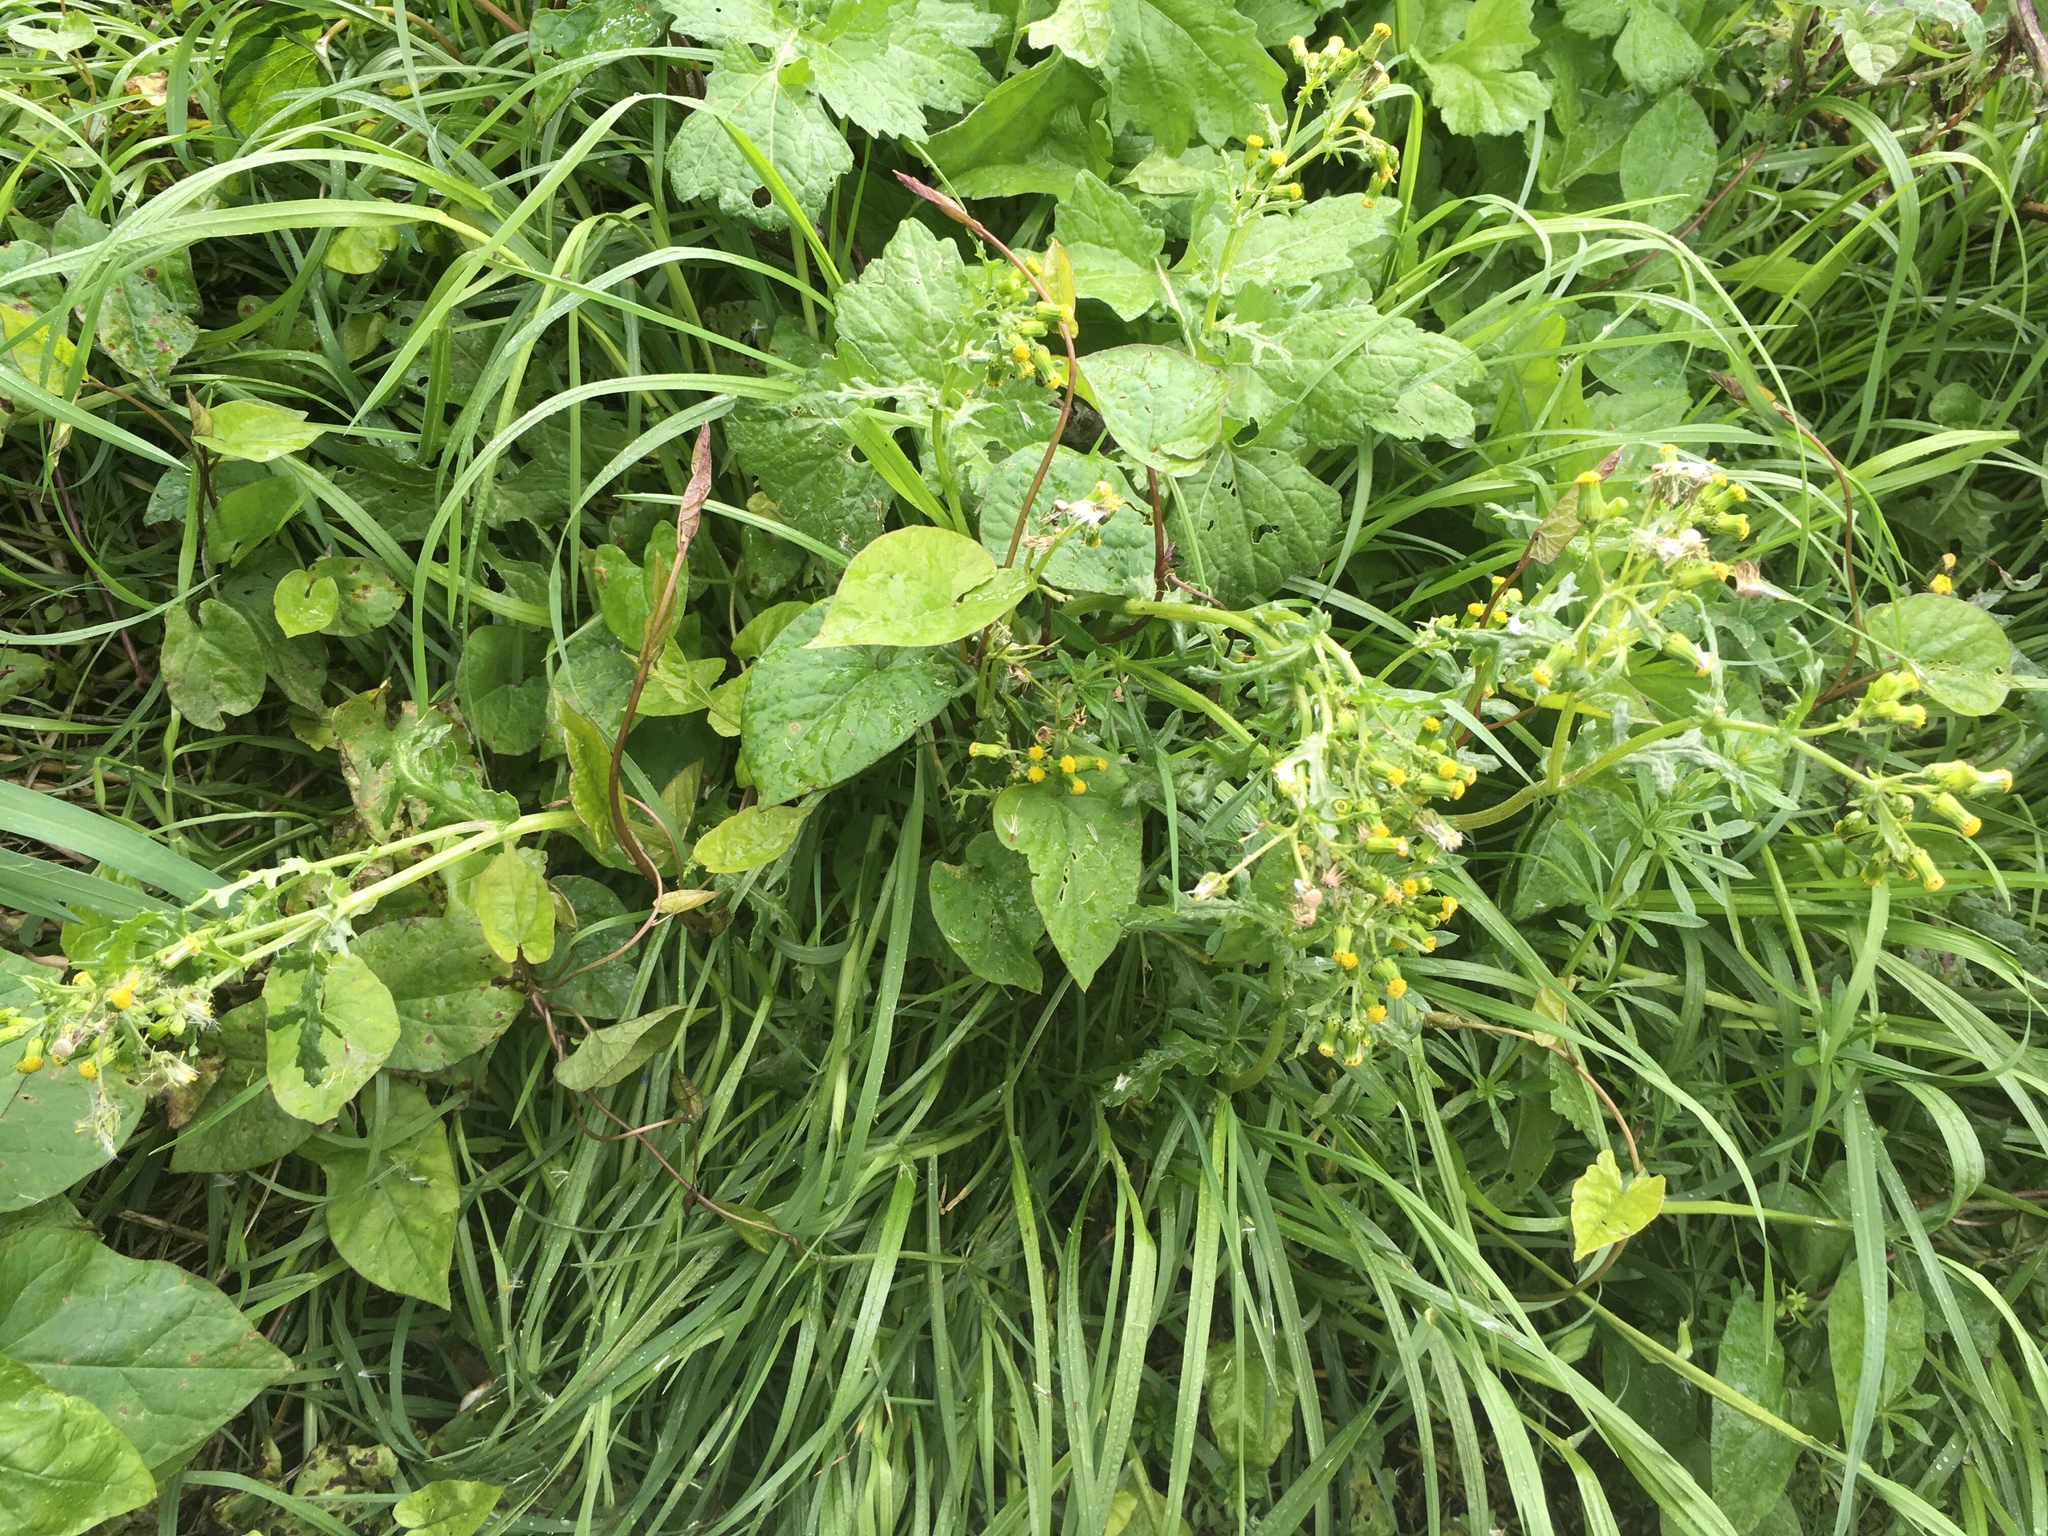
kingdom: Plantae
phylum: Tracheophyta
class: Magnoliopsida
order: Asterales
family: Asteraceae
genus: Senecio
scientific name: Senecio vulgaris
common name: Old-man-in-the-spring
